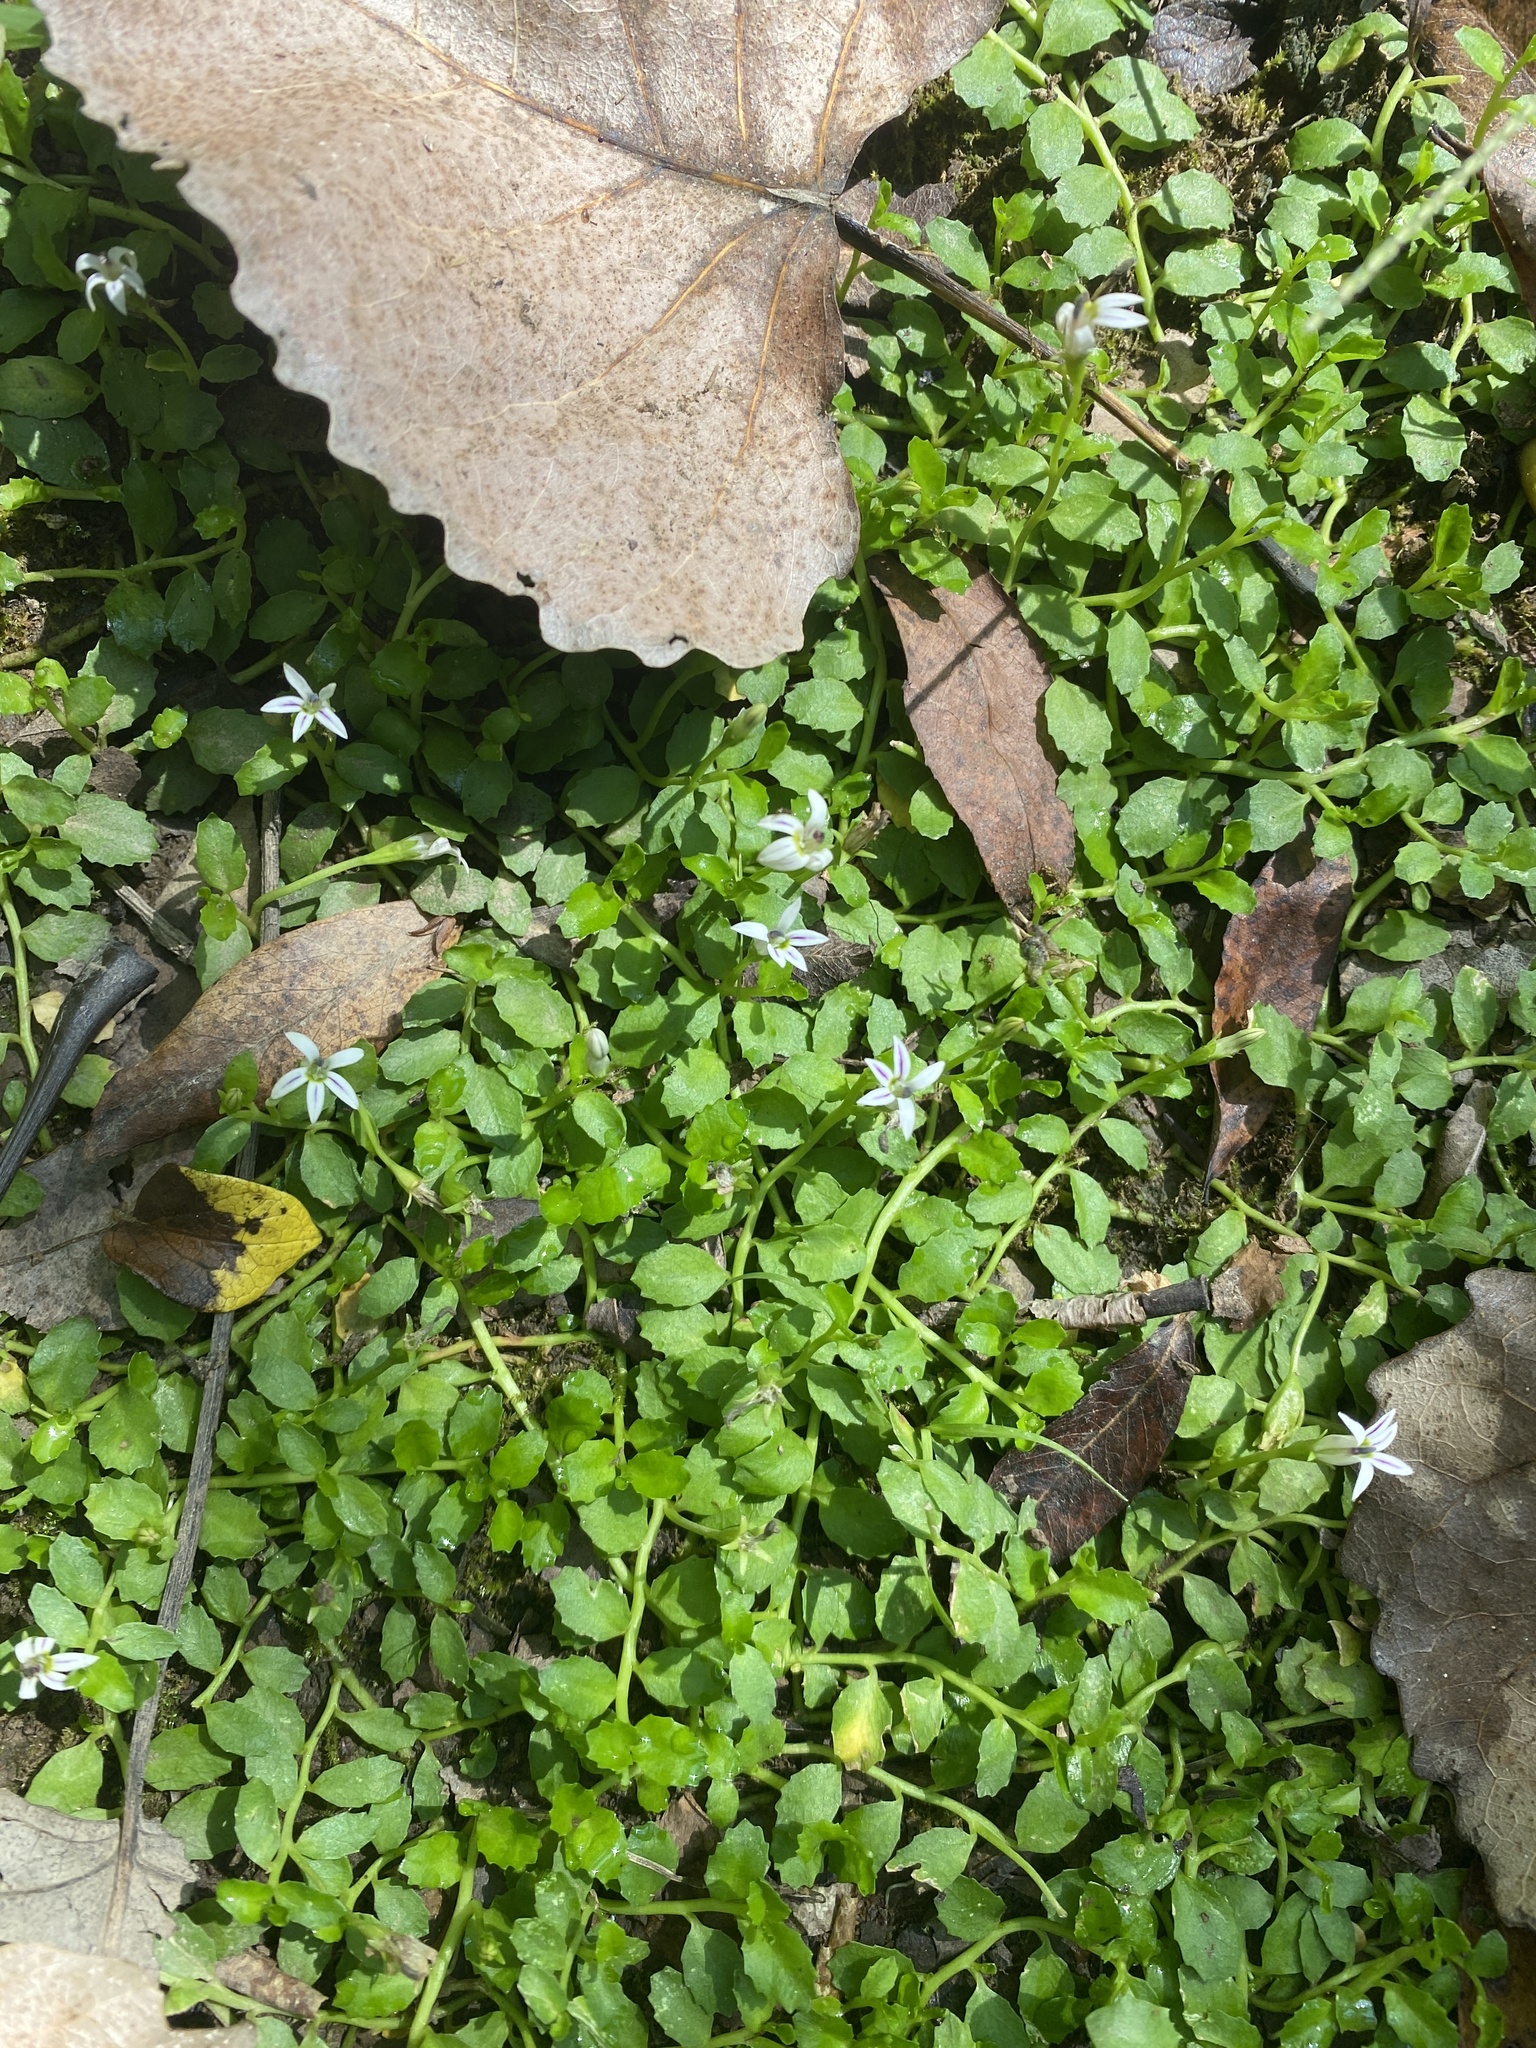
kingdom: Plantae
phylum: Tracheophyta
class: Magnoliopsida
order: Asterales
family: Campanulaceae
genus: Lobelia
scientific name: Lobelia hederacea
